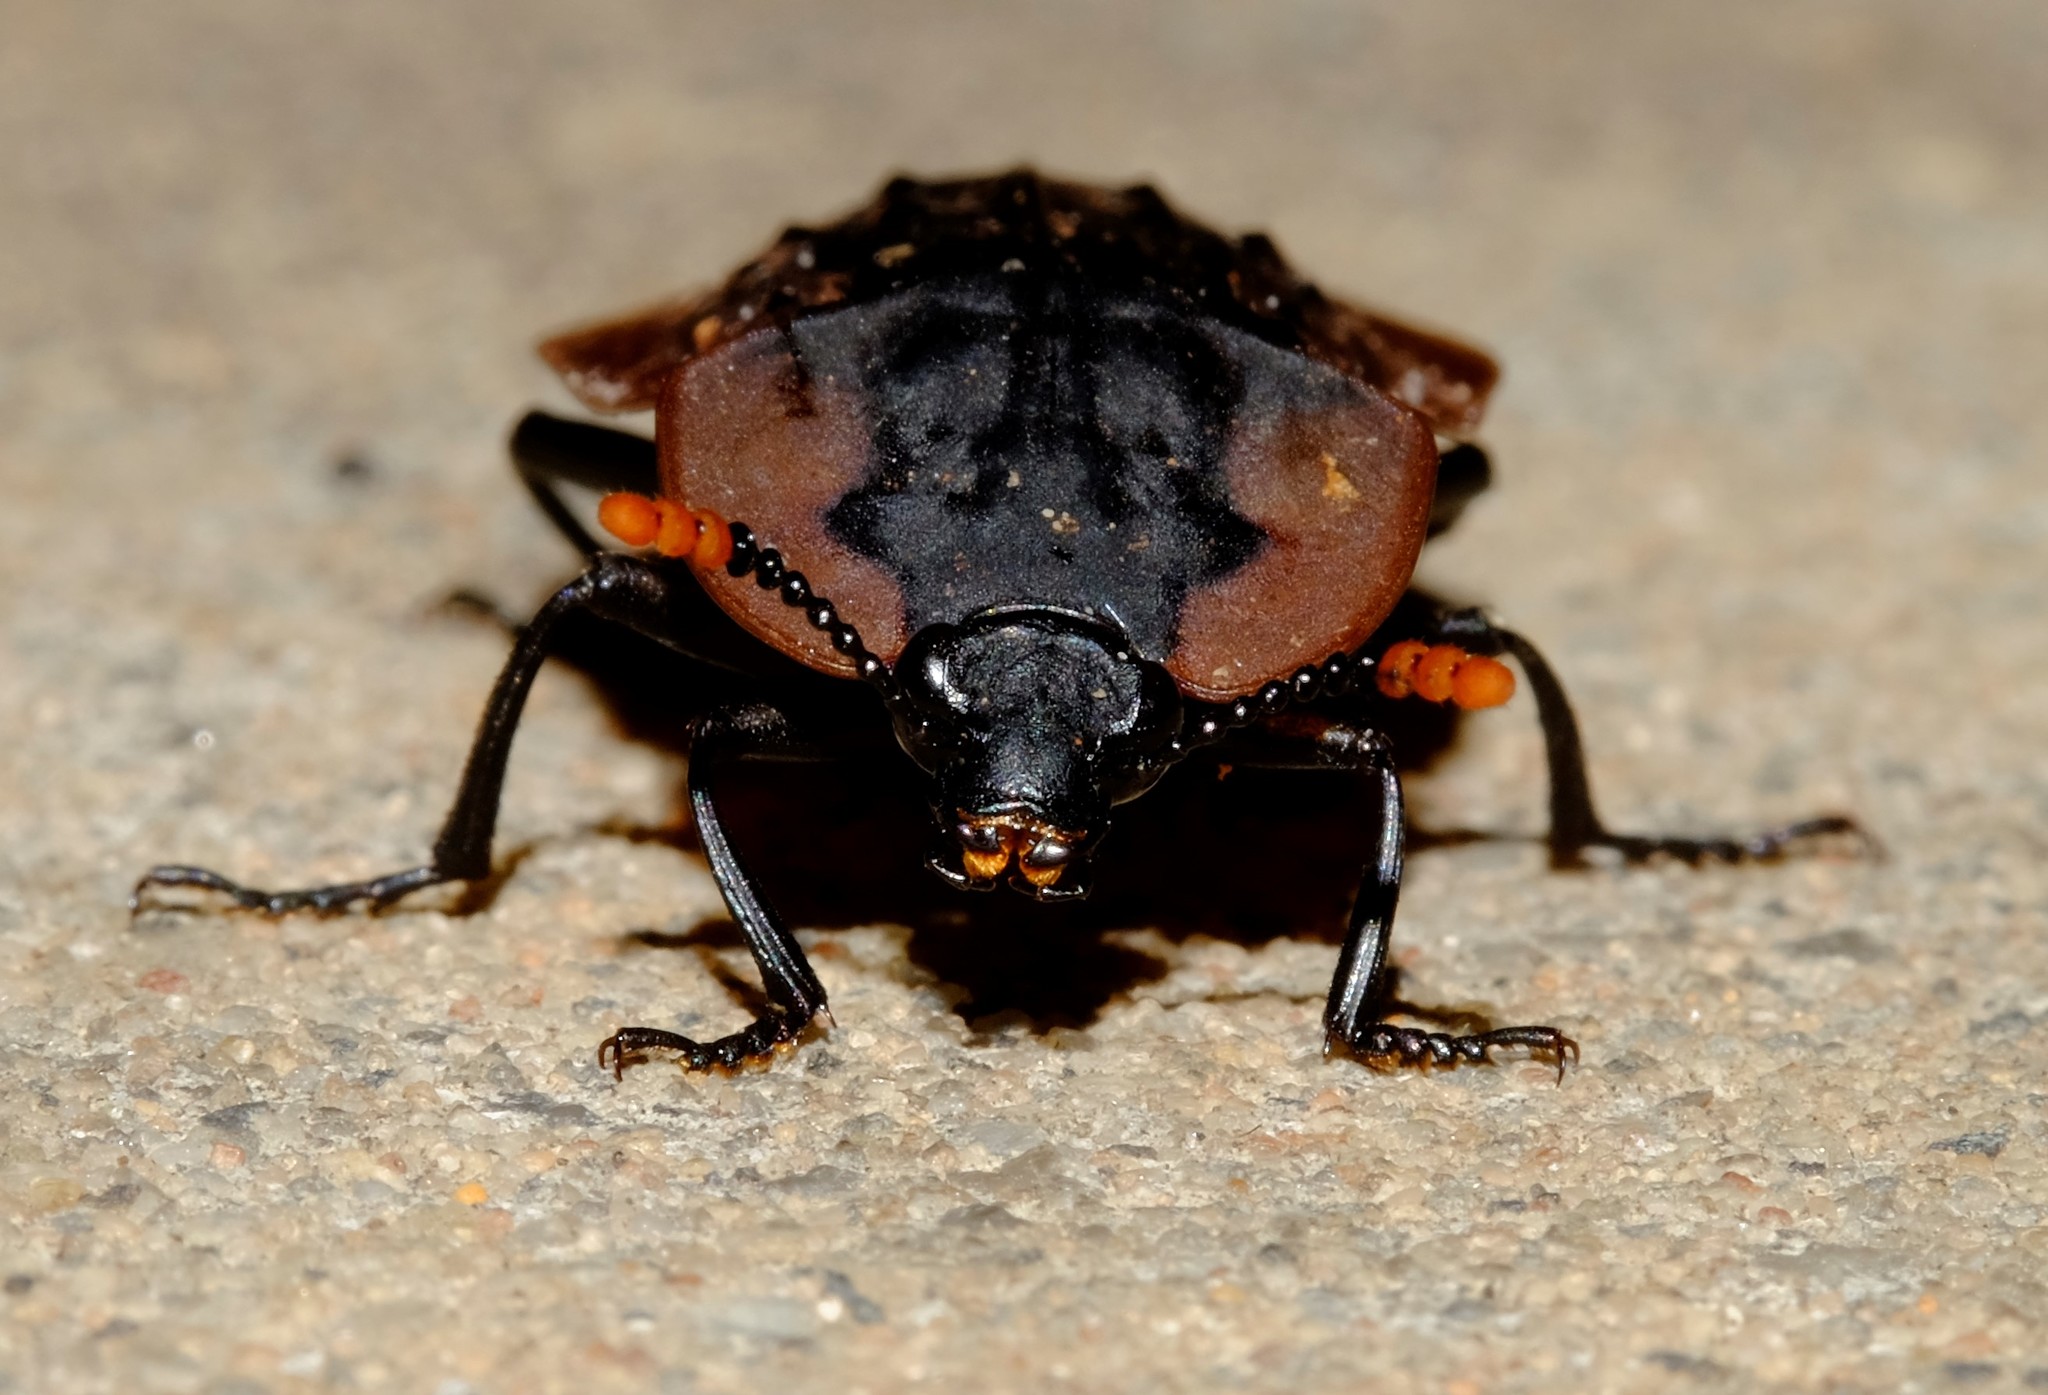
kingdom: Animalia
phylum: Arthropoda
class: Insecta
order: Coleoptera
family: Staphylinidae
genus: Ptomaphila
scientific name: Ptomaphila lacrymosa
